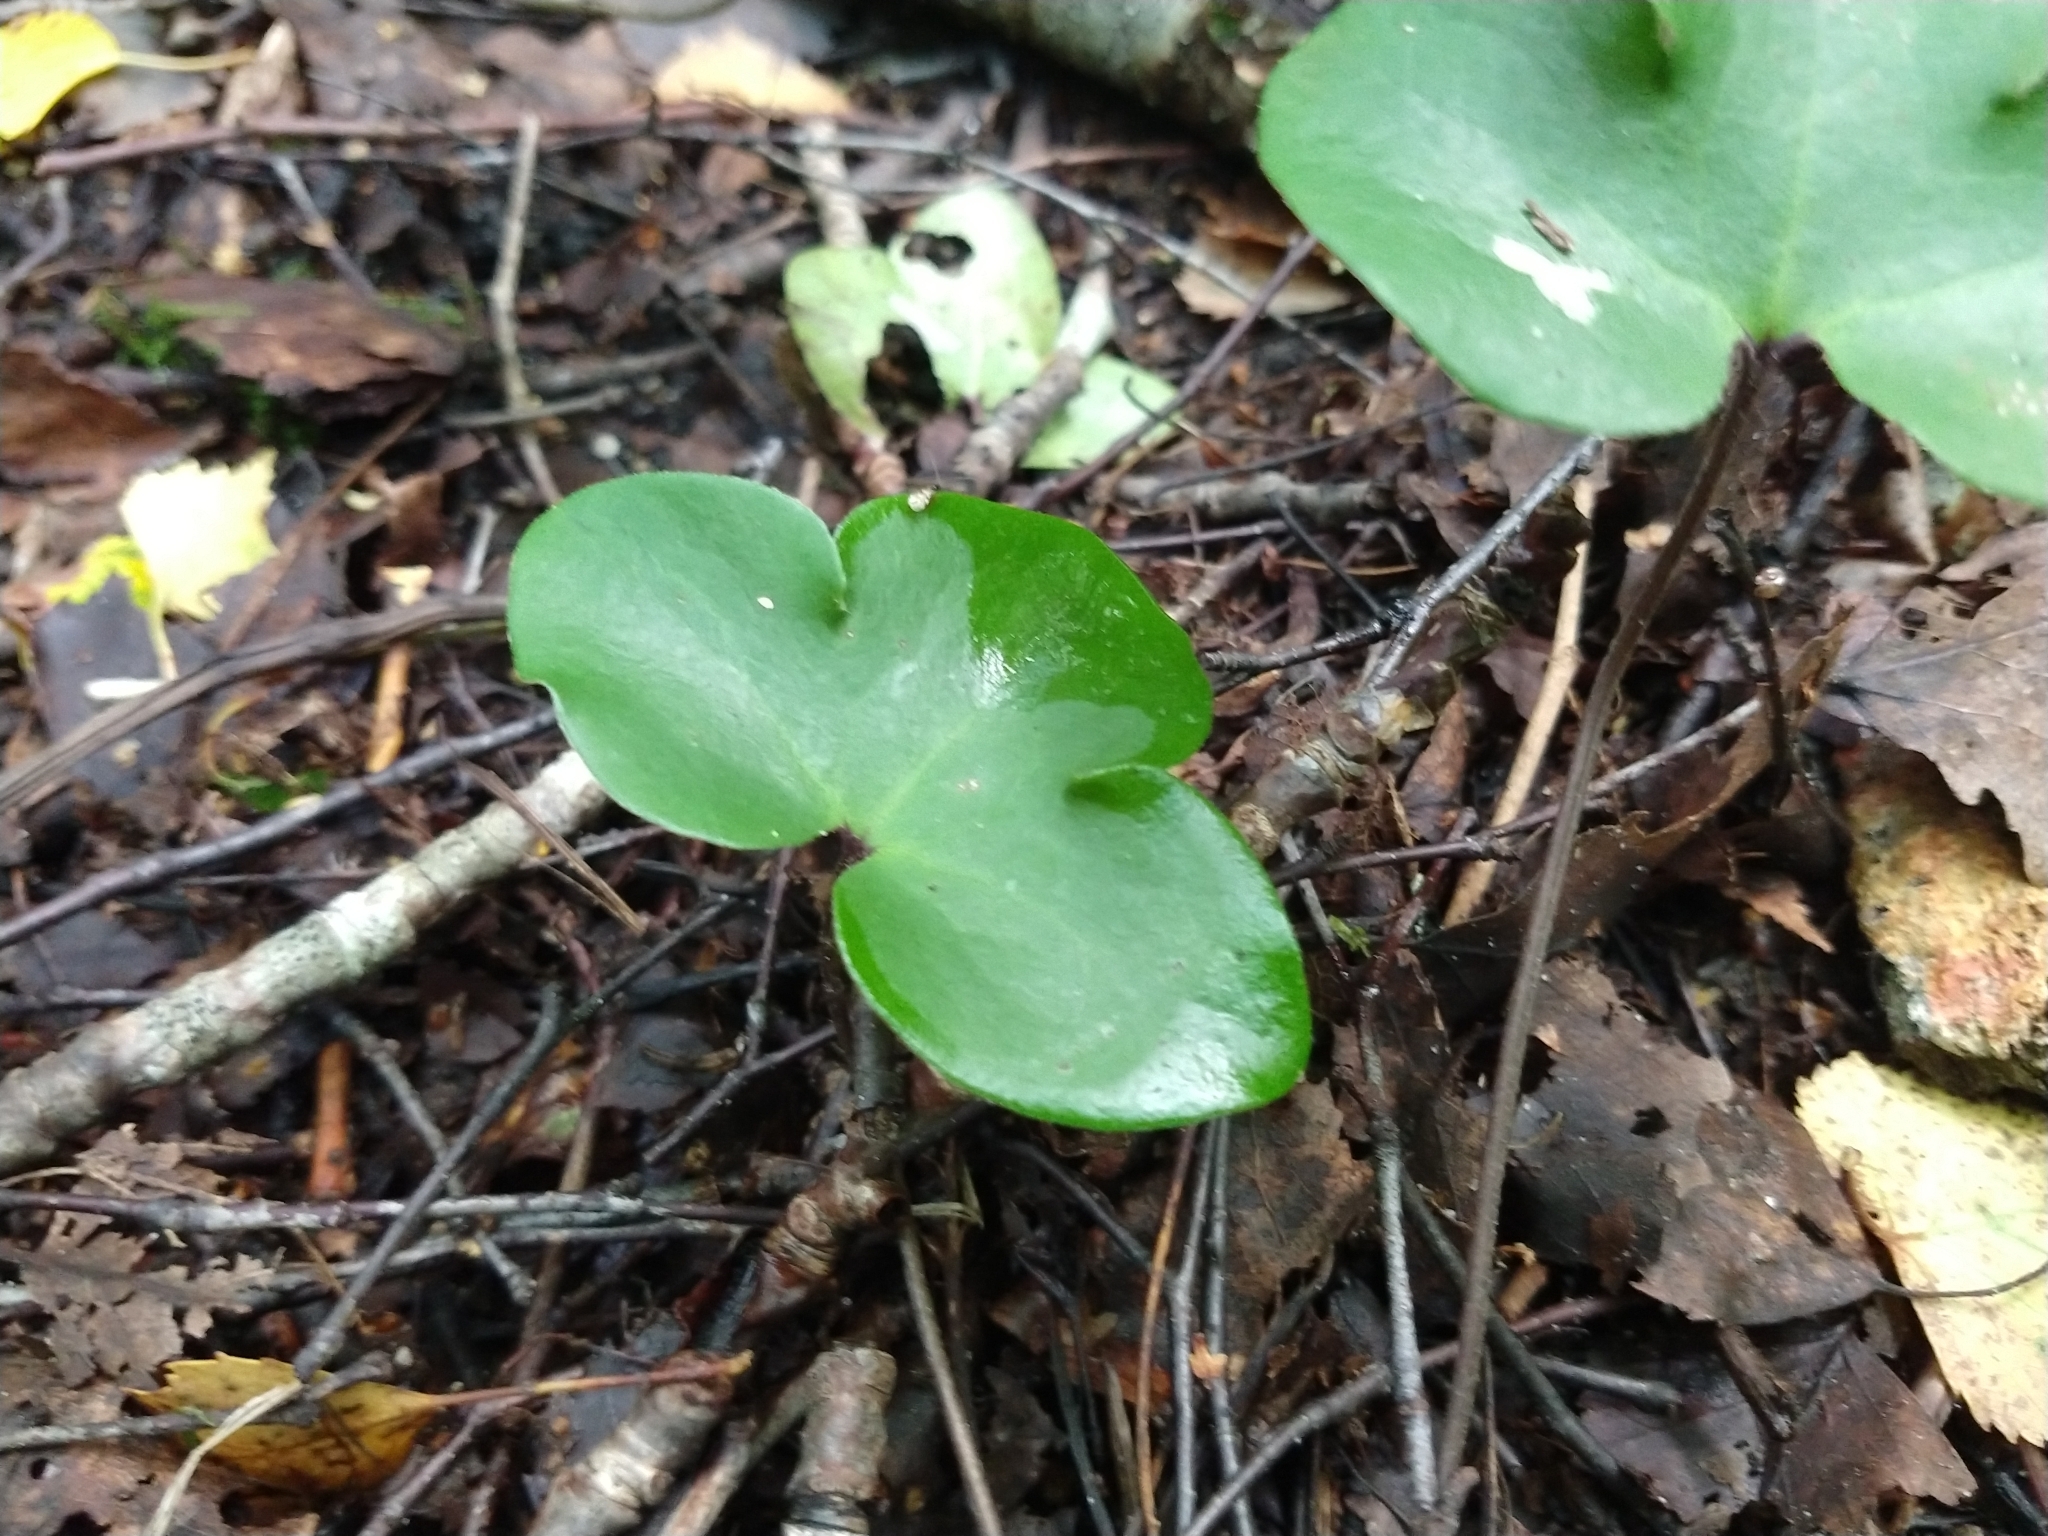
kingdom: Plantae
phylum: Tracheophyta
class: Magnoliopsida
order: Ranunculales
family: Ranunculaceae
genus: Hepatica
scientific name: Hepatica nobilis
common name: Liverleaf
